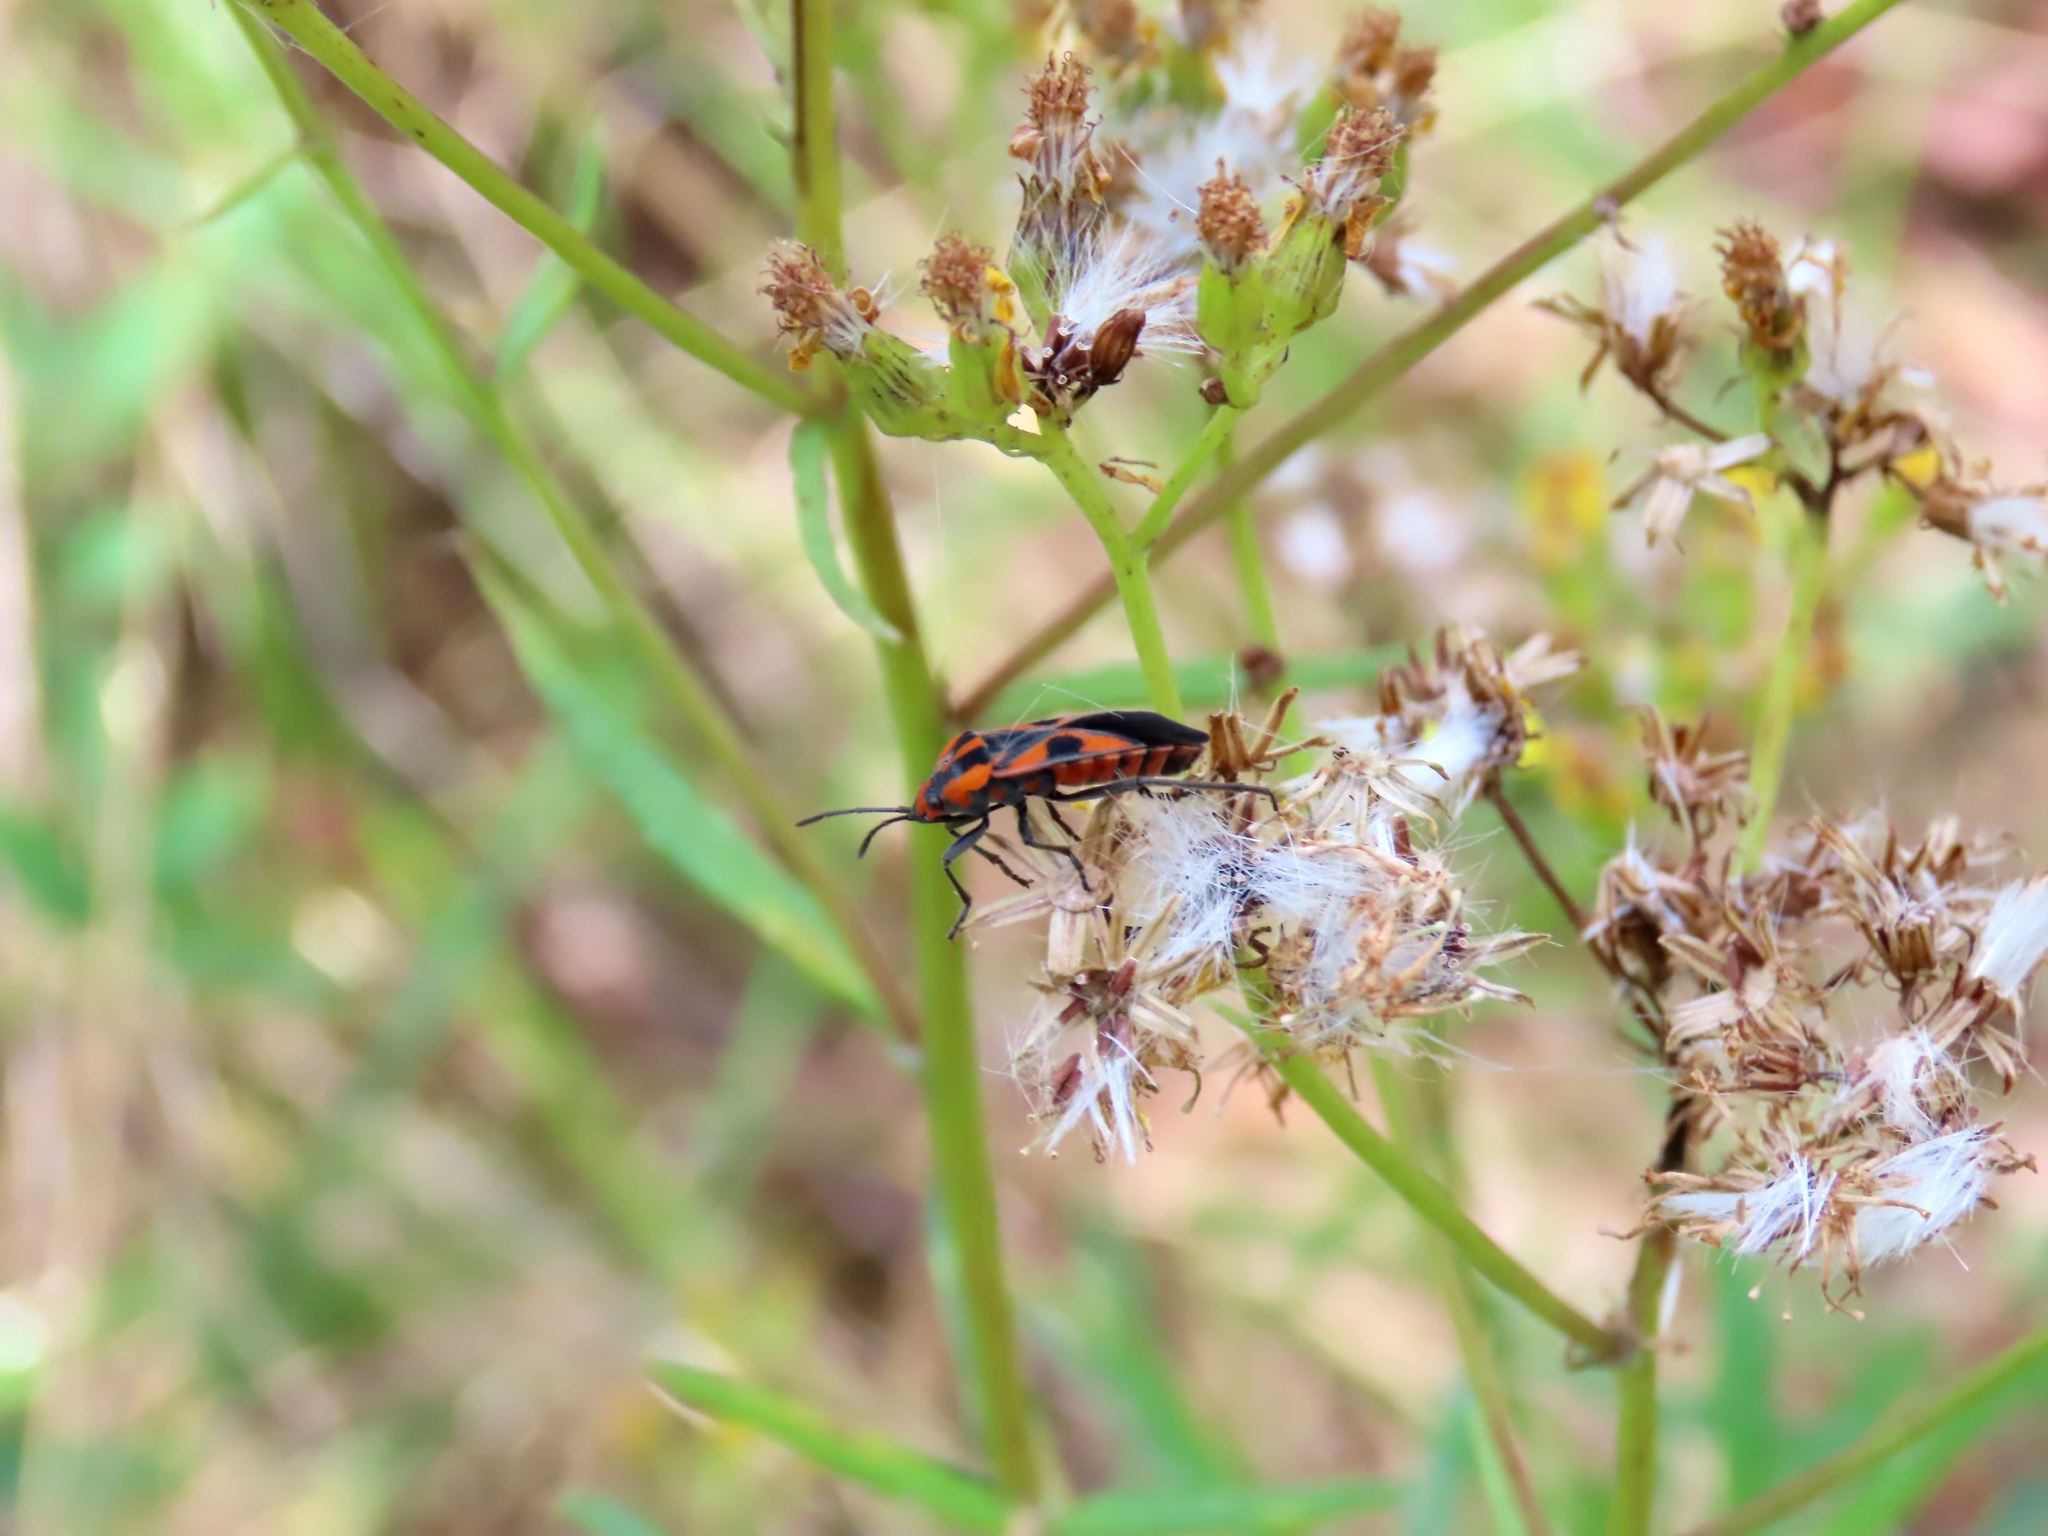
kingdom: Animalia
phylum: Arthropoda
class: Insecta
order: Hemiptera
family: Lygaeidae
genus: Spilostethus
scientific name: Spilostethus pacificus
